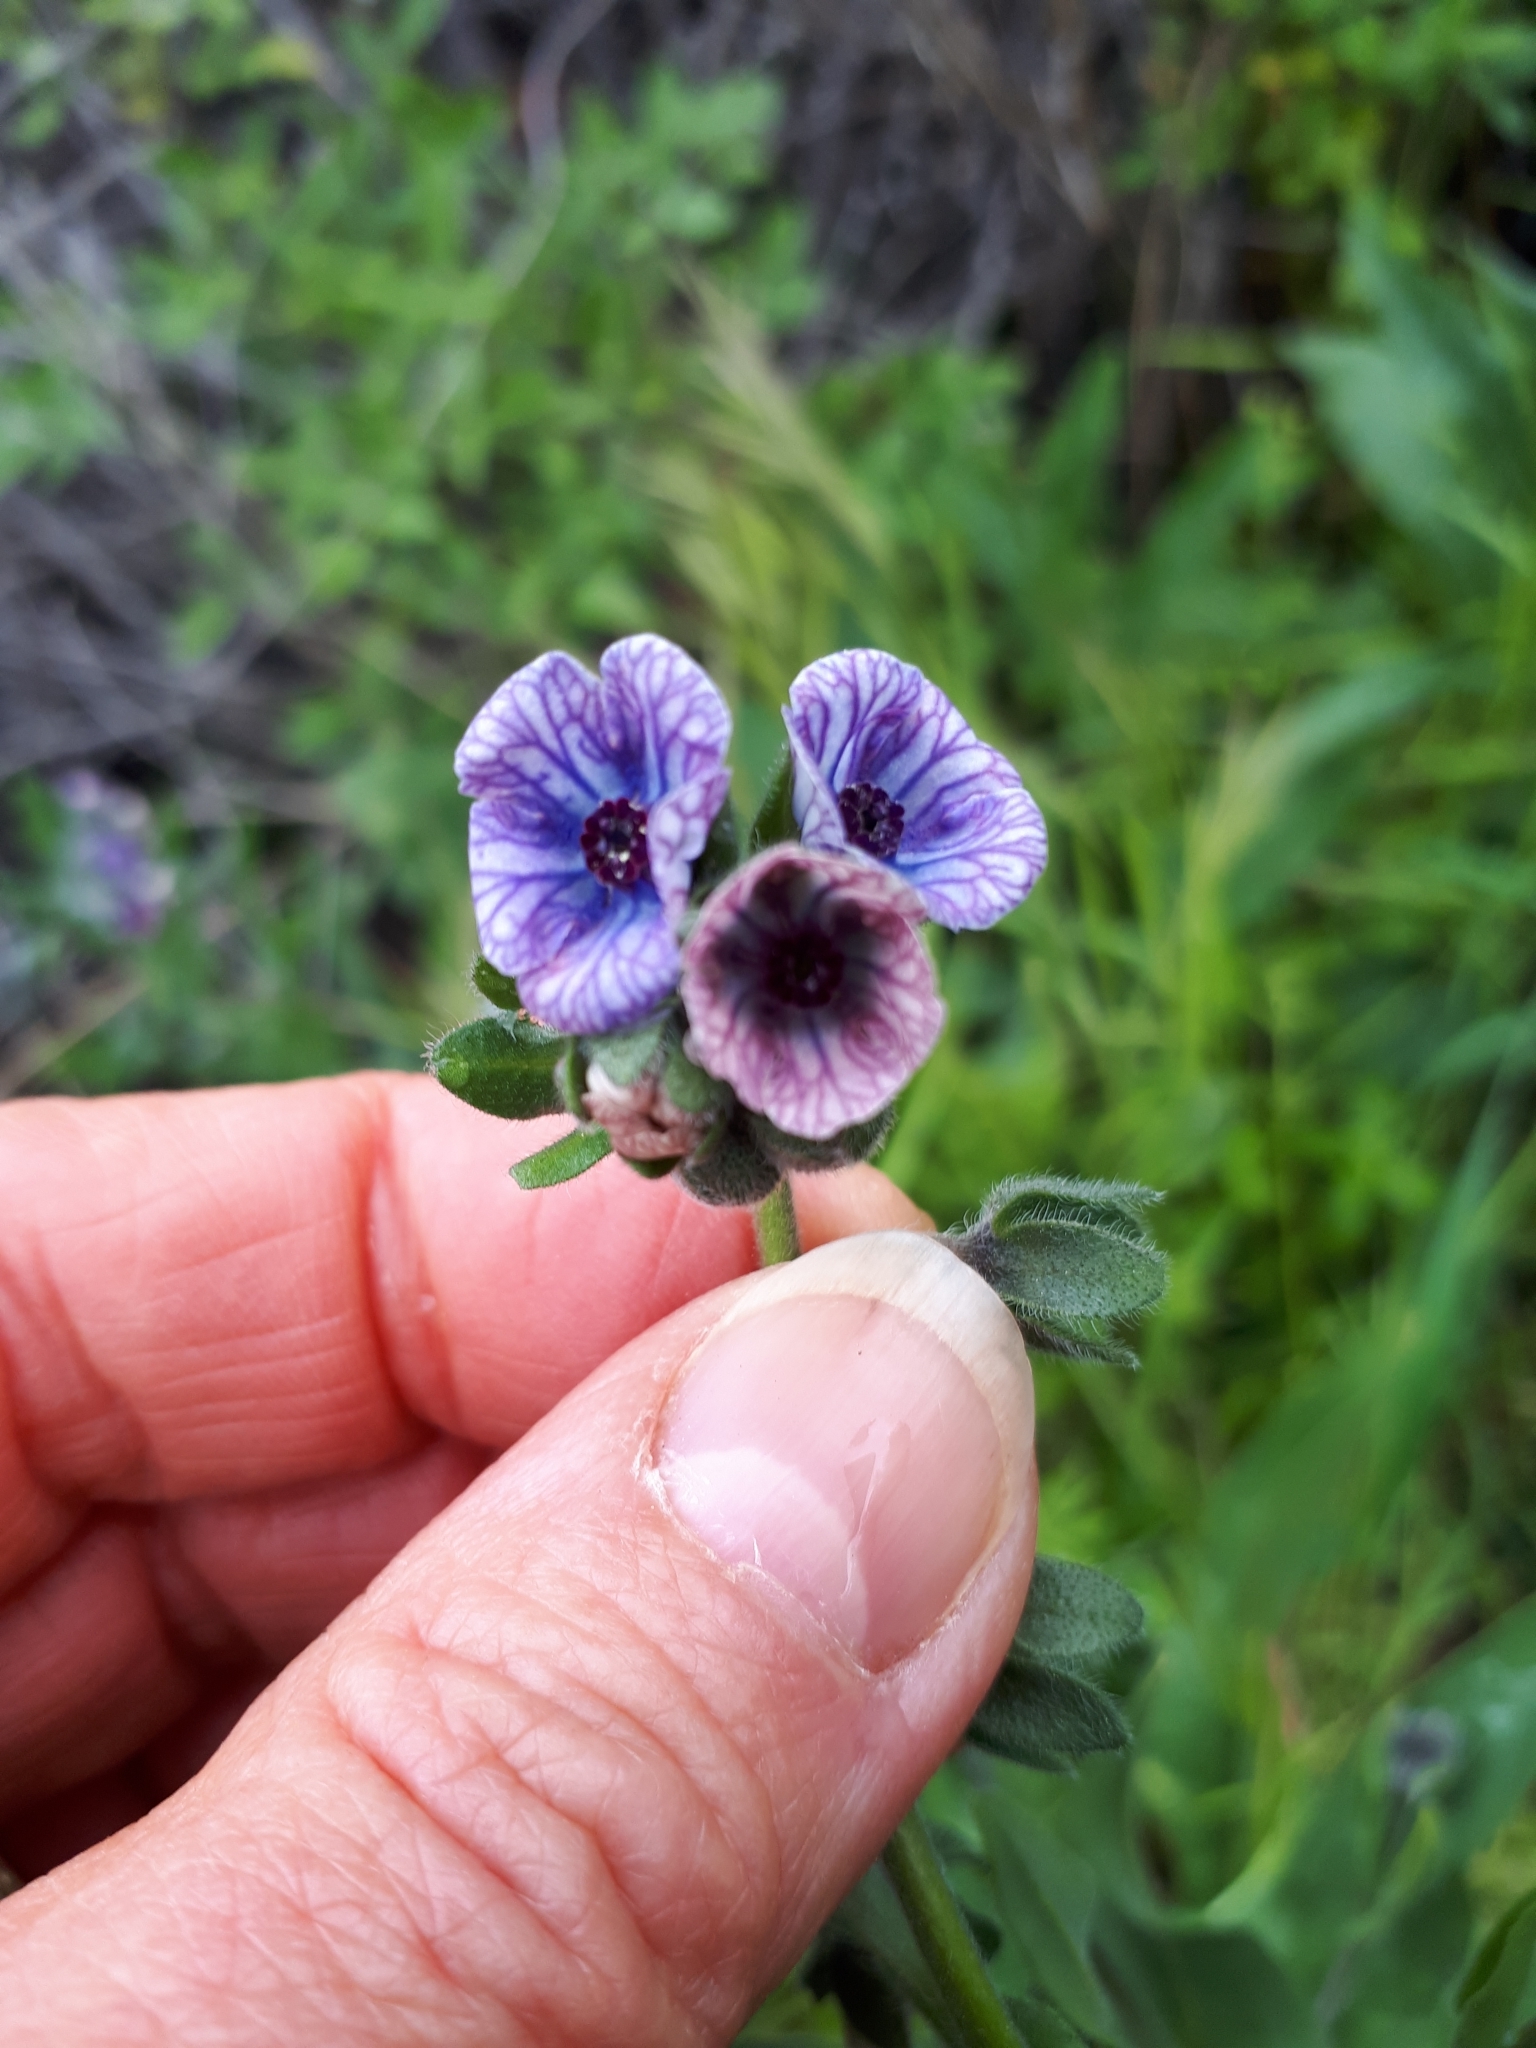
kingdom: Plantae
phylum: Tracheophyta
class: Magnoliopsida
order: Boraginales
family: Boraginaceae
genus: Cynoglossum
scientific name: Cynoglossum creticum
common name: Blue hound's tongue
